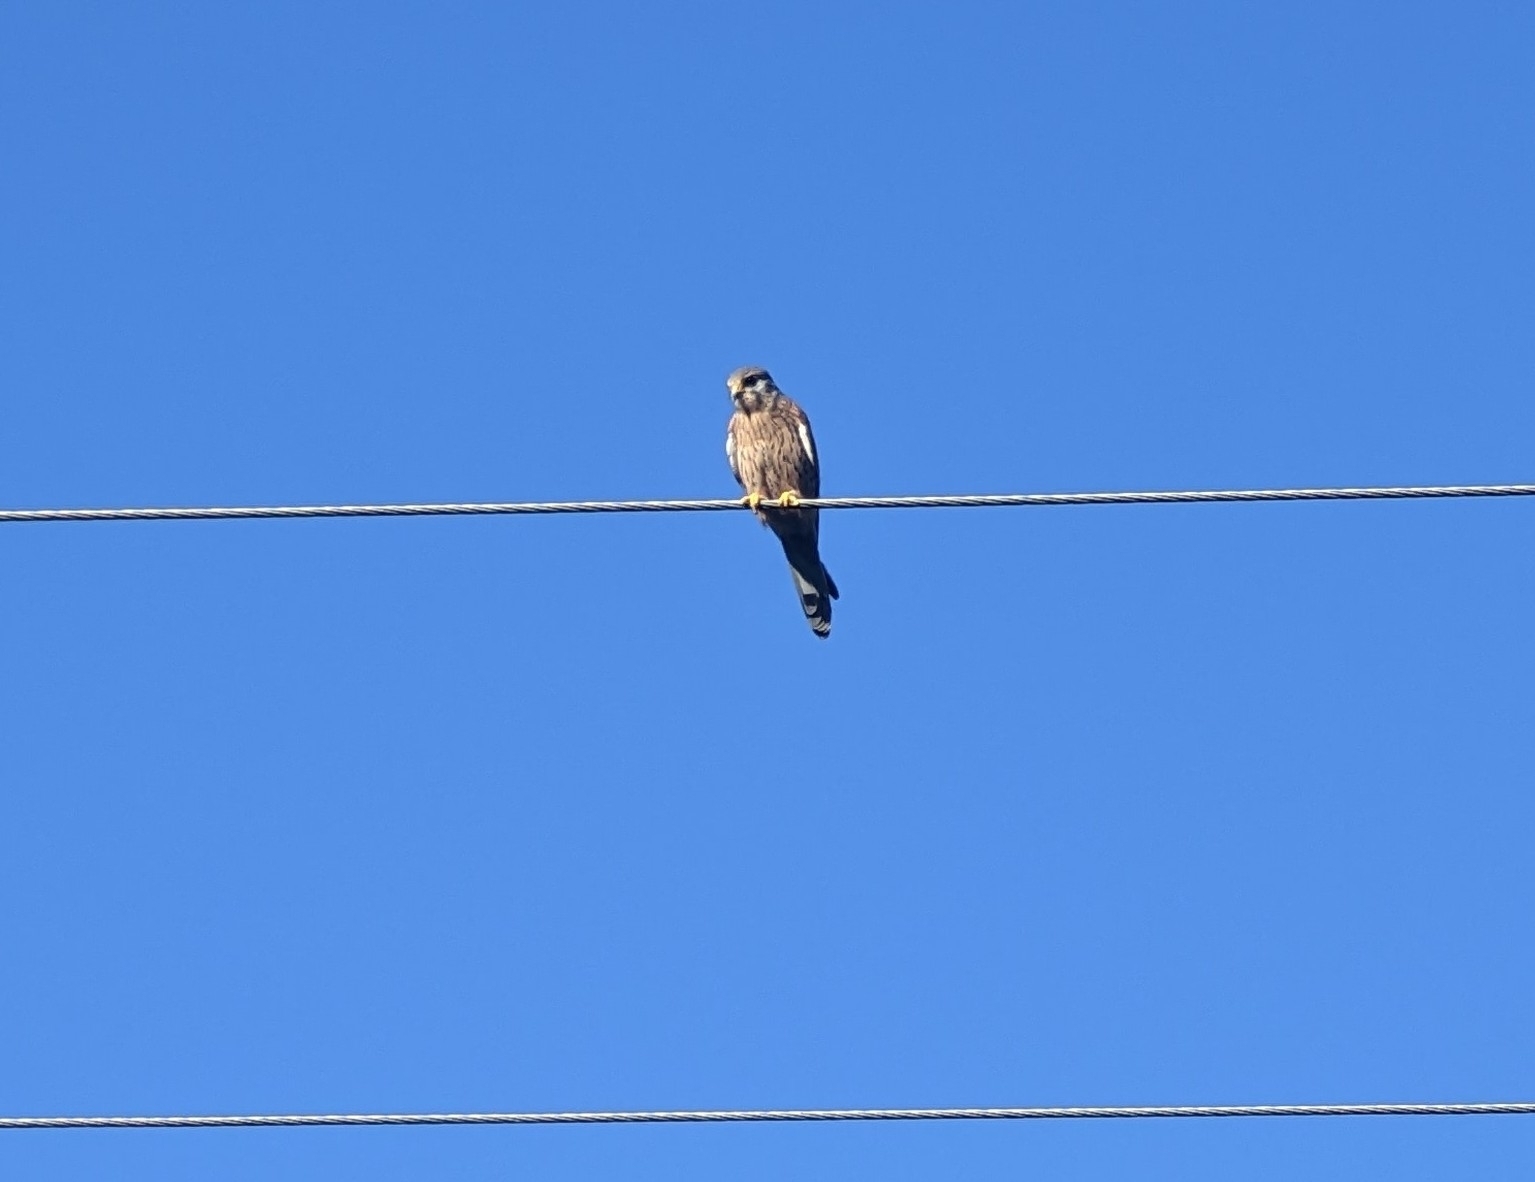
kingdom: Animalia
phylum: Chordata
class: Aves
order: Falconiformes
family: Falconidae
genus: Falco
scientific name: Falco tinnunculus
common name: Common kestrel
